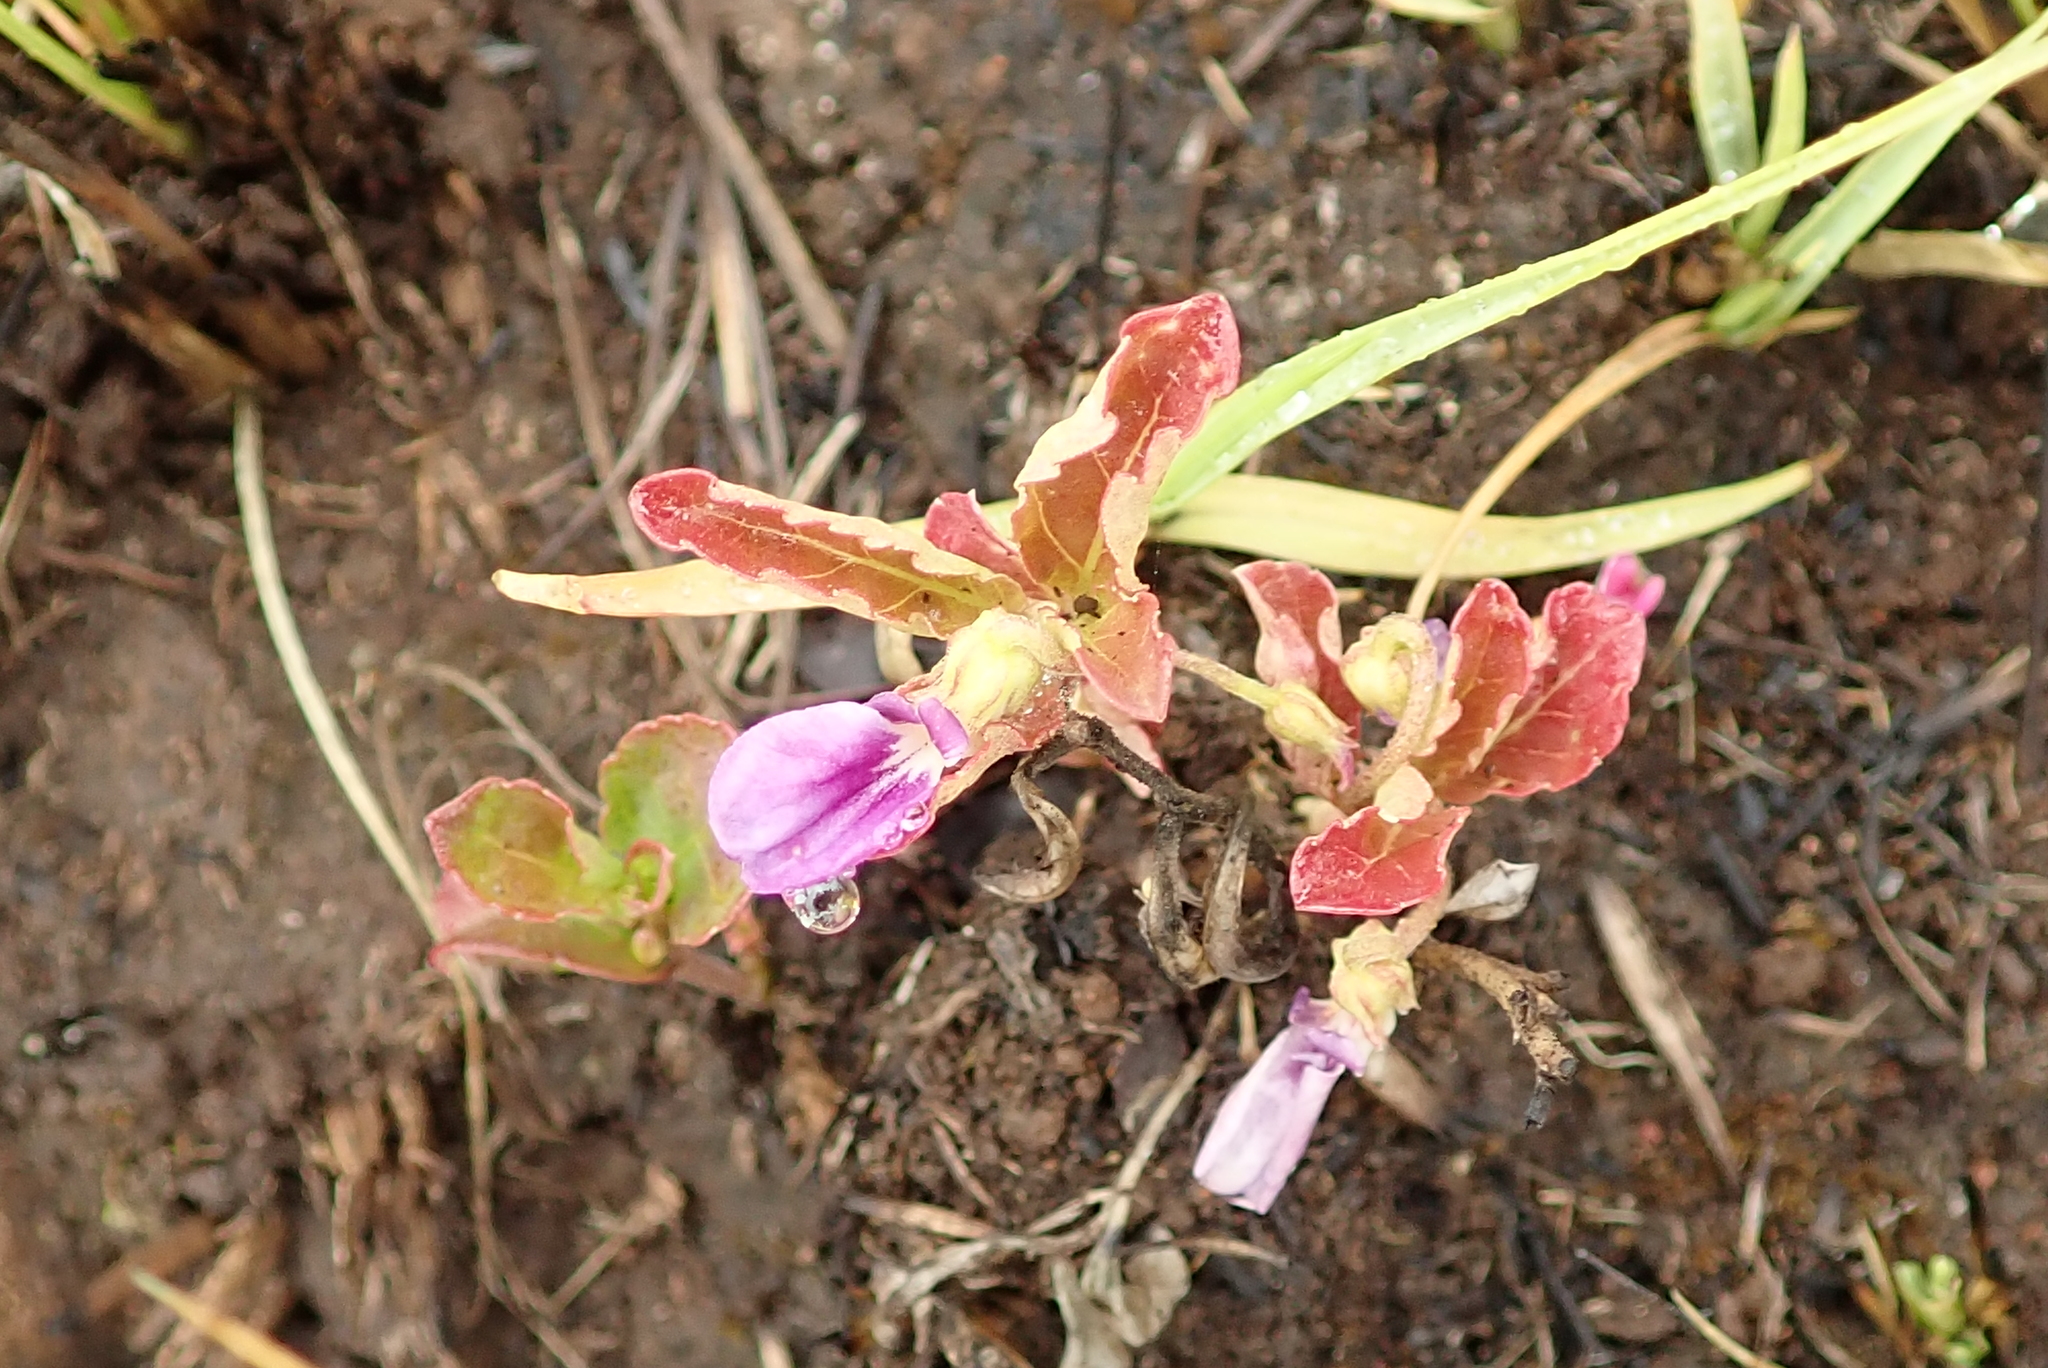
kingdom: Plantae
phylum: Tracheophyta
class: Magnoliopsida
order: Malpighiales
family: Violaceae
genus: Hybanthus
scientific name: Hybanthus capensis
